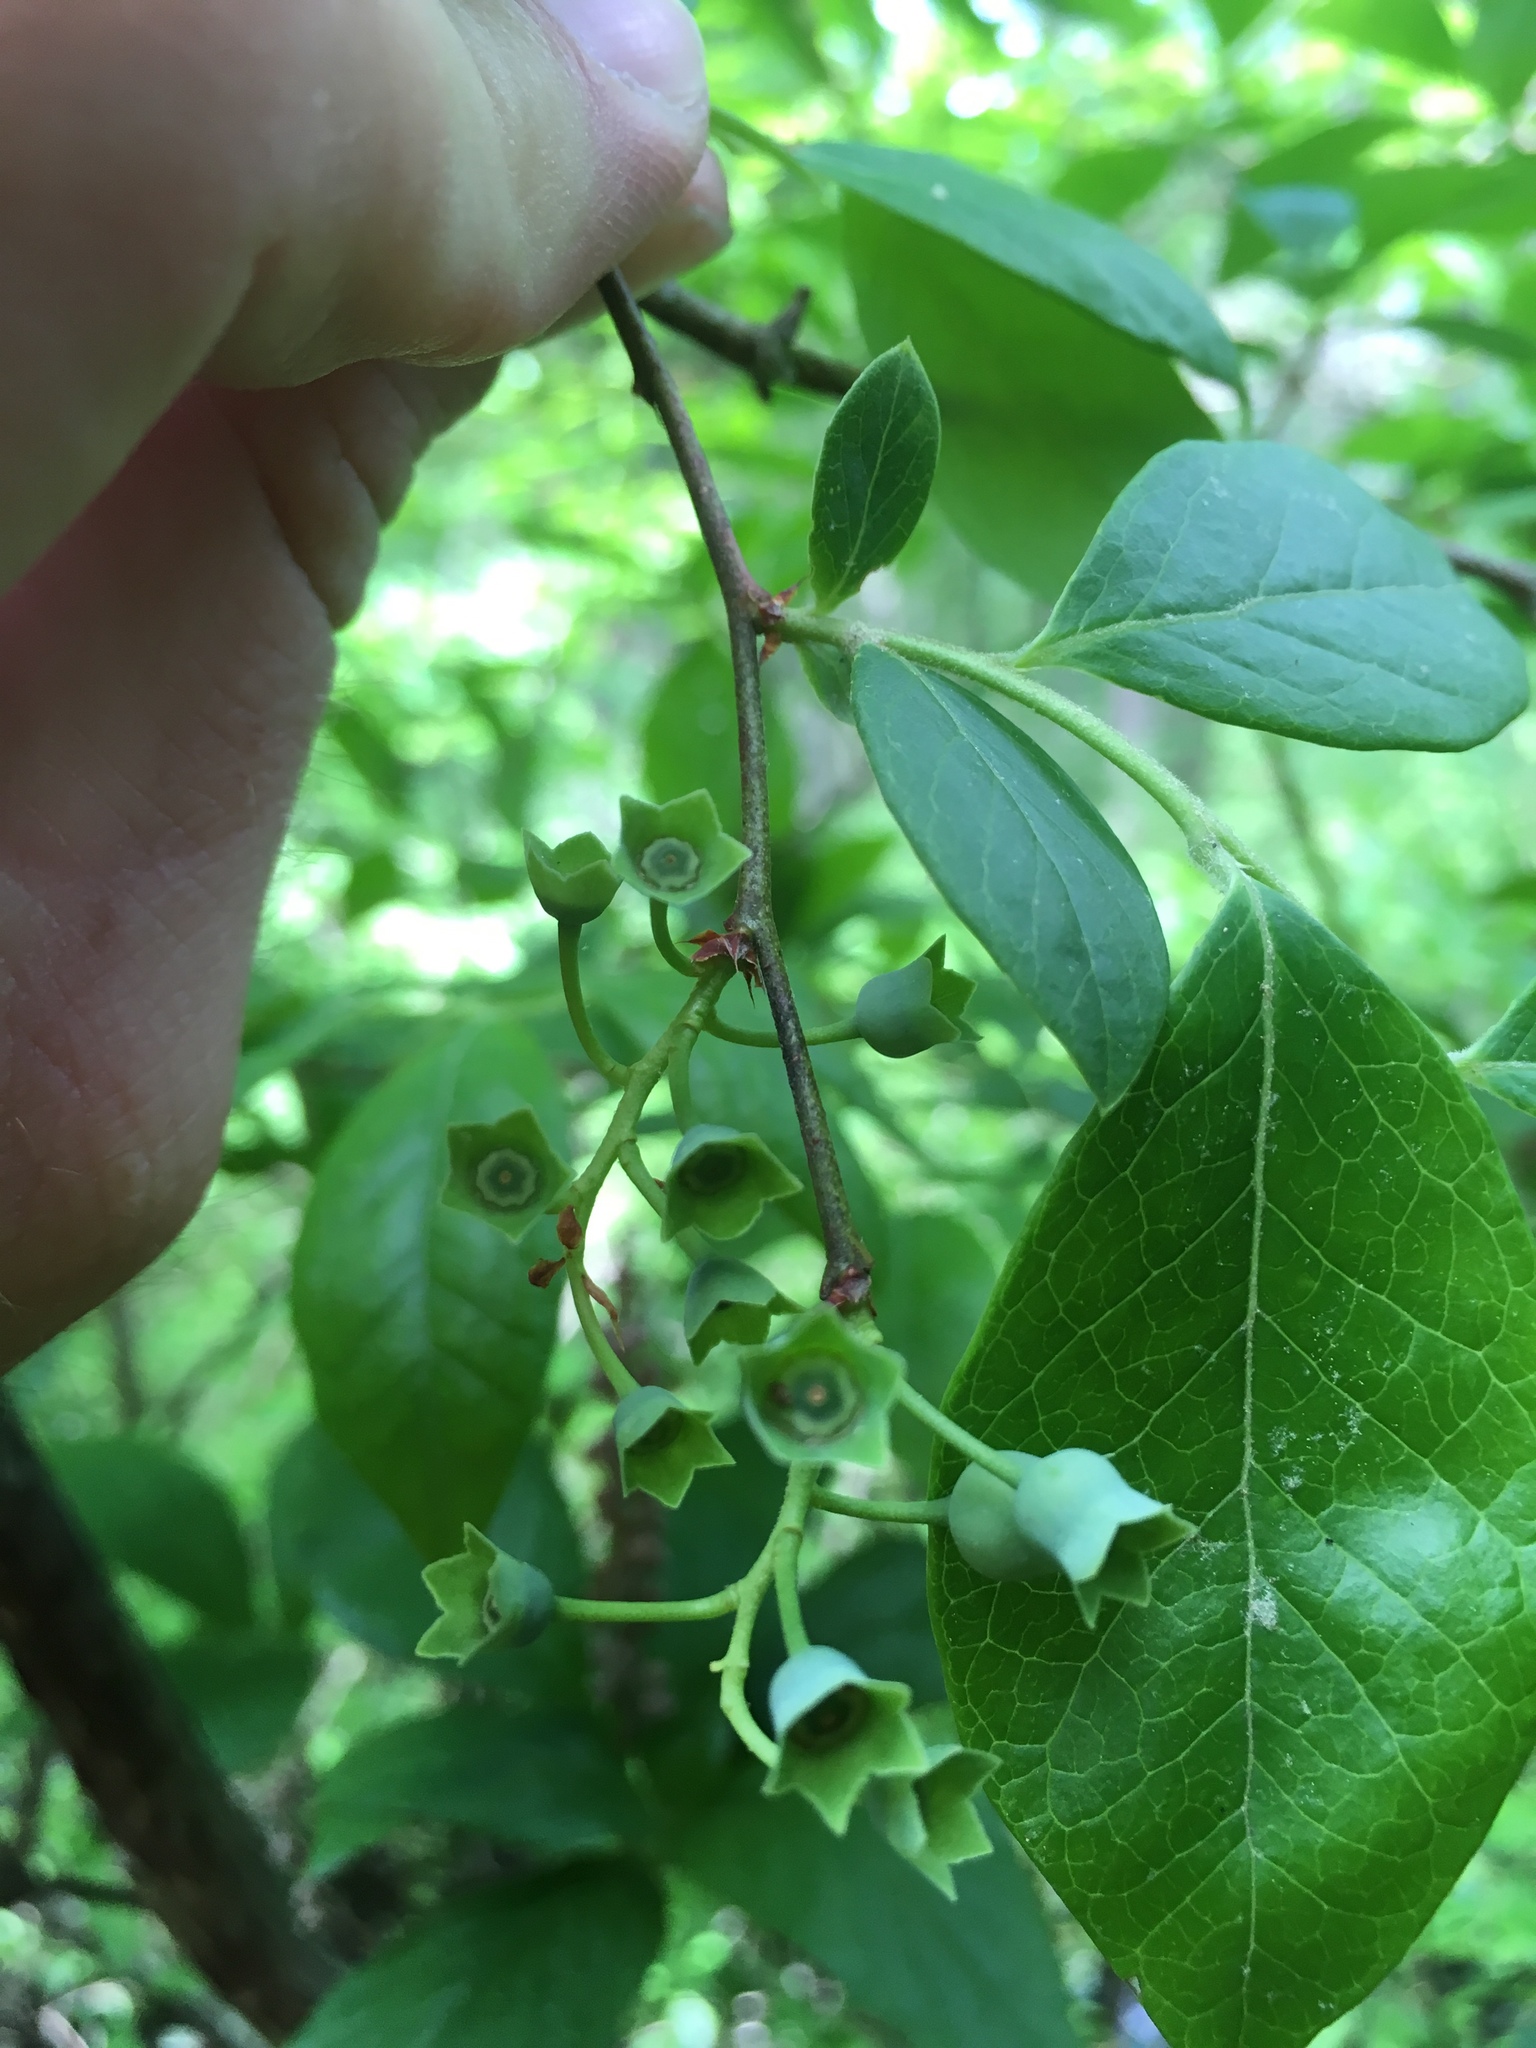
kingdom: Plantae
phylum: Tracheophyta
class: Magnoliopsida
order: Ericales
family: Clethraceae
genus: Clethra
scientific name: Clethra alnifolia
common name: Sweet pepperbush
